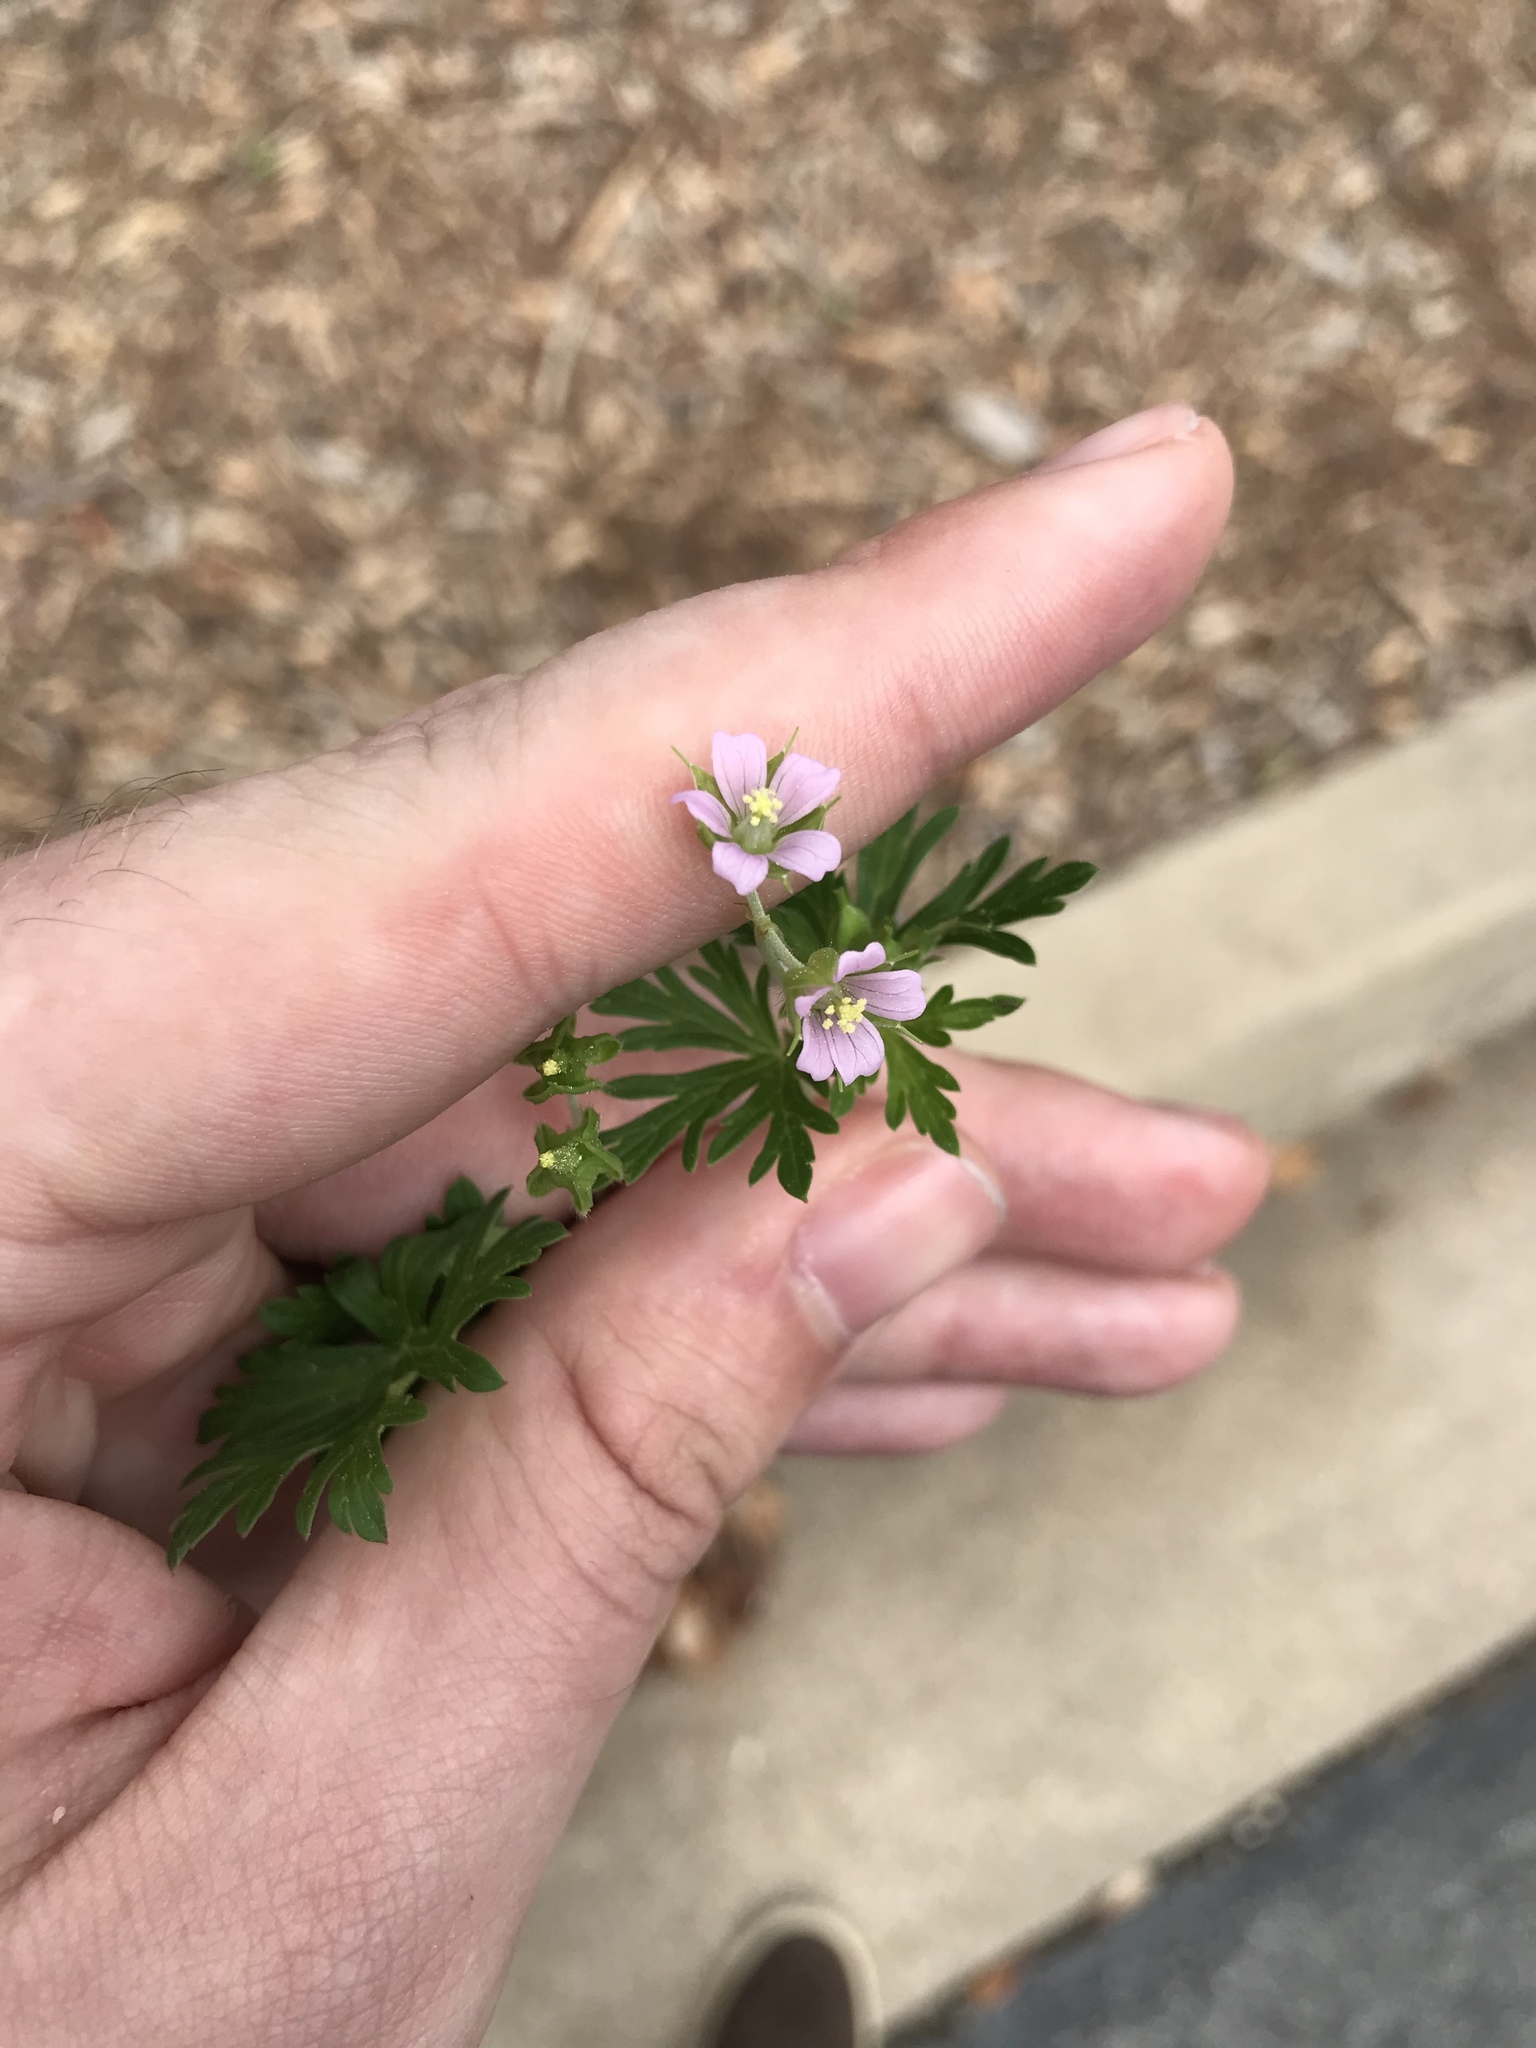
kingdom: Plantae
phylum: Tracheophyta
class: Magnoliopsida
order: Geraniales
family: Geraniaceae
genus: Geranium
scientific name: Geranium carolinianum
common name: Carolina crane's-bill
